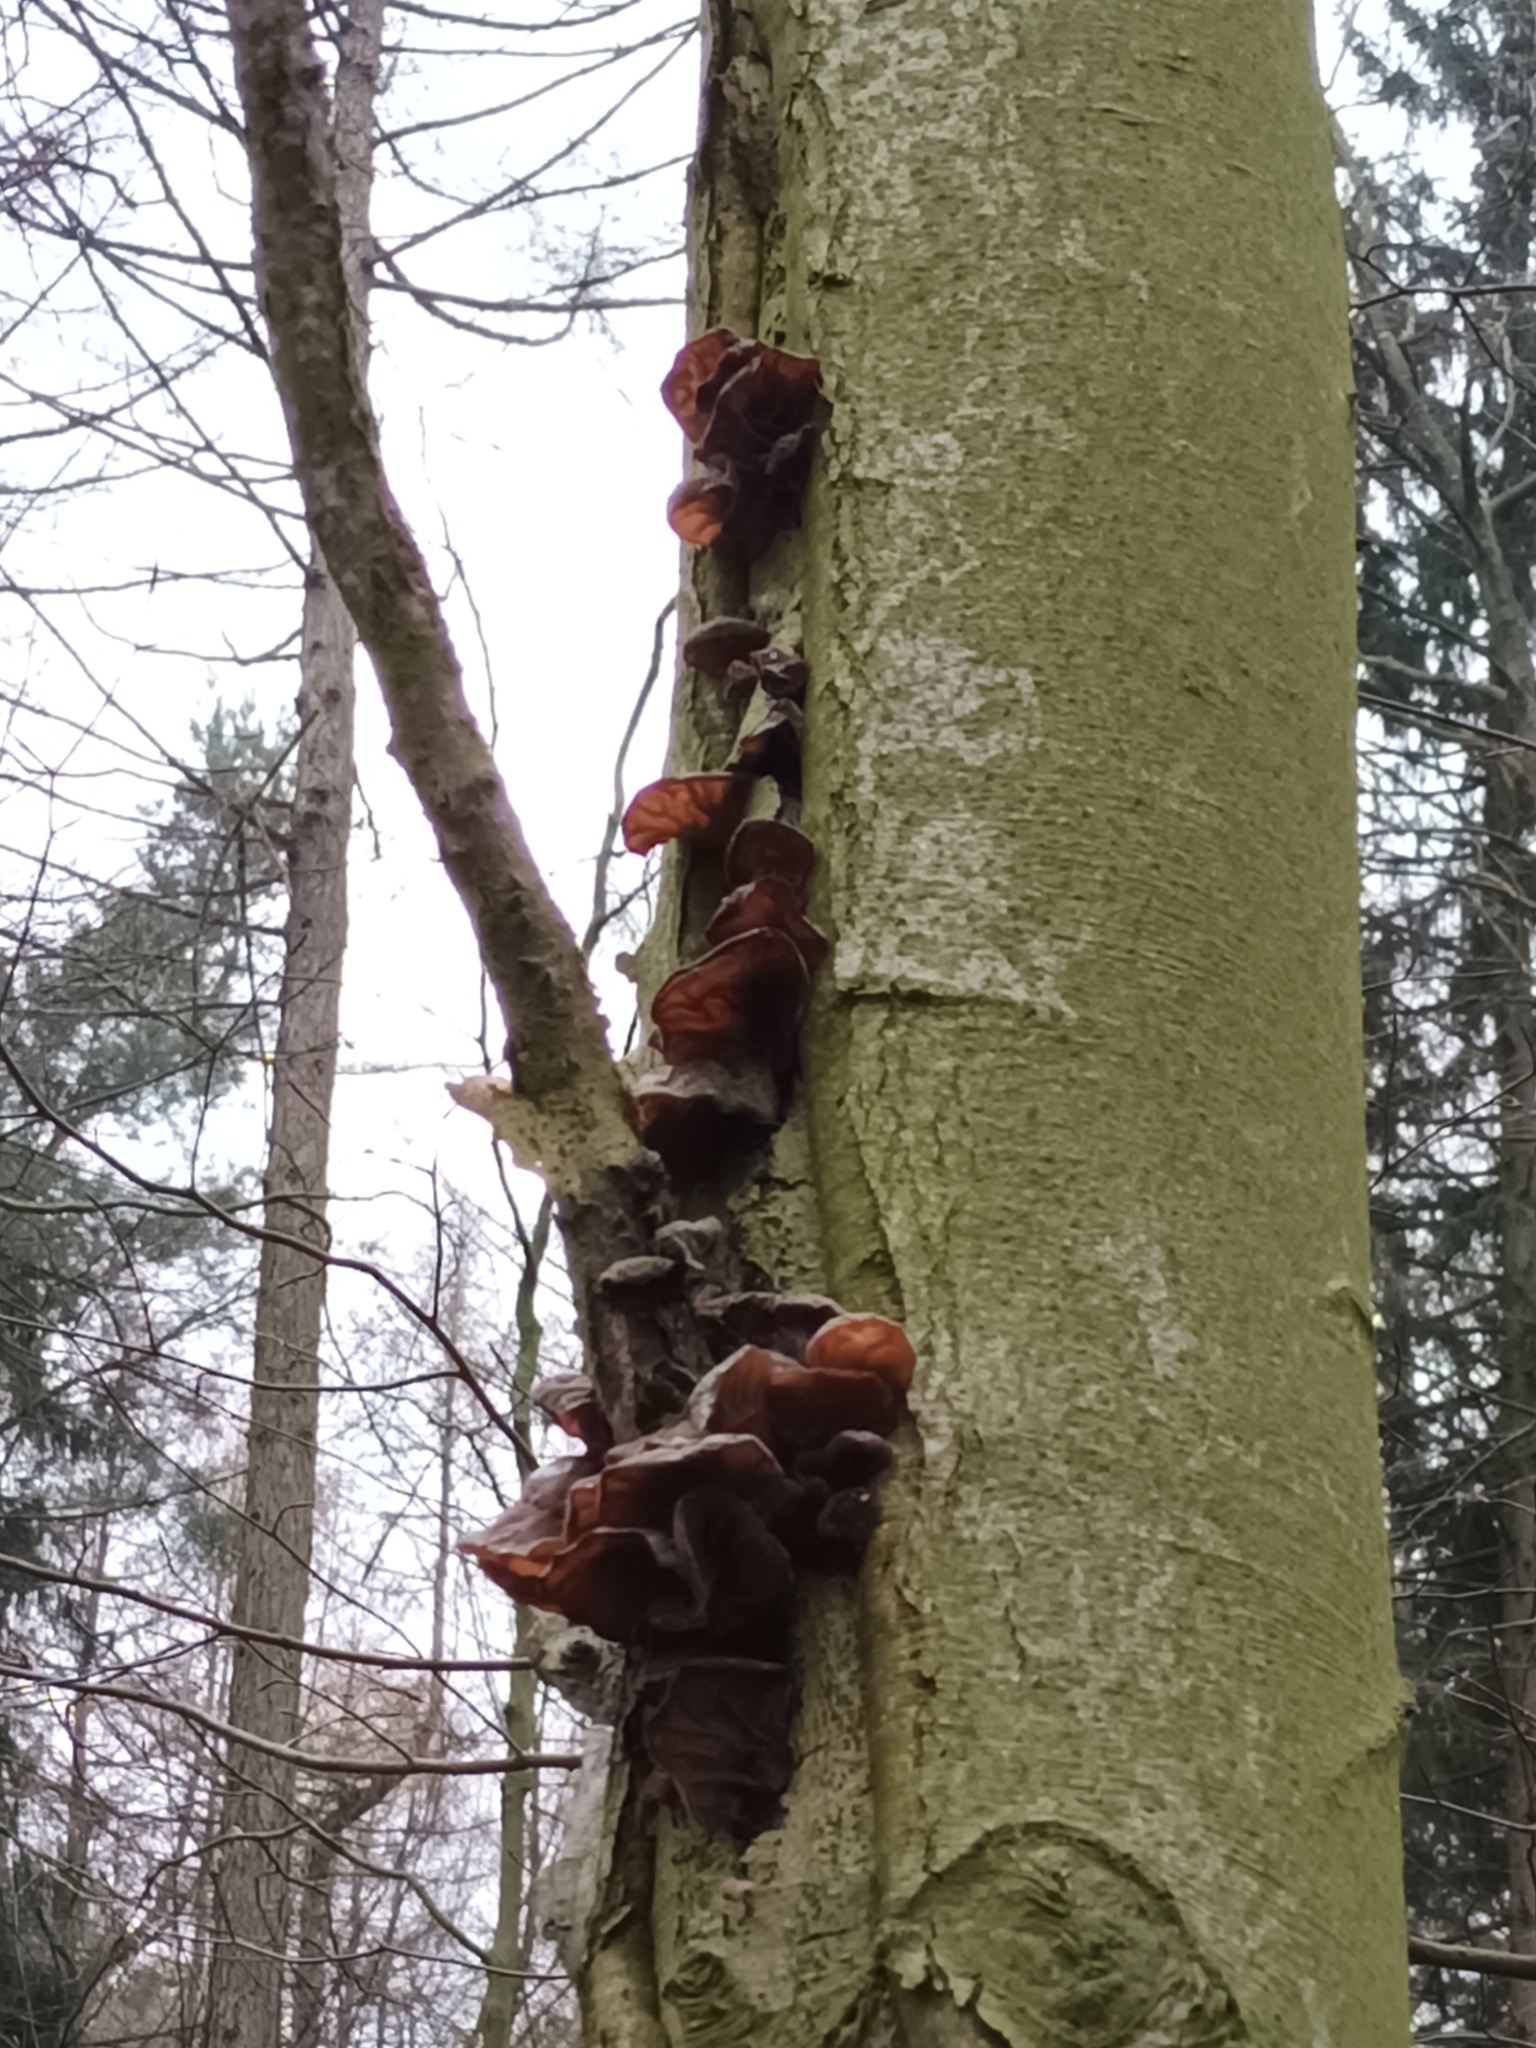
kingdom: Fungi
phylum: Basidiomycota
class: Agaricomycetes
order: Auriculariales
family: Auriculariaceae
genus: Auricularia
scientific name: Auricularia auricula-judae
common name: Jelly ear
